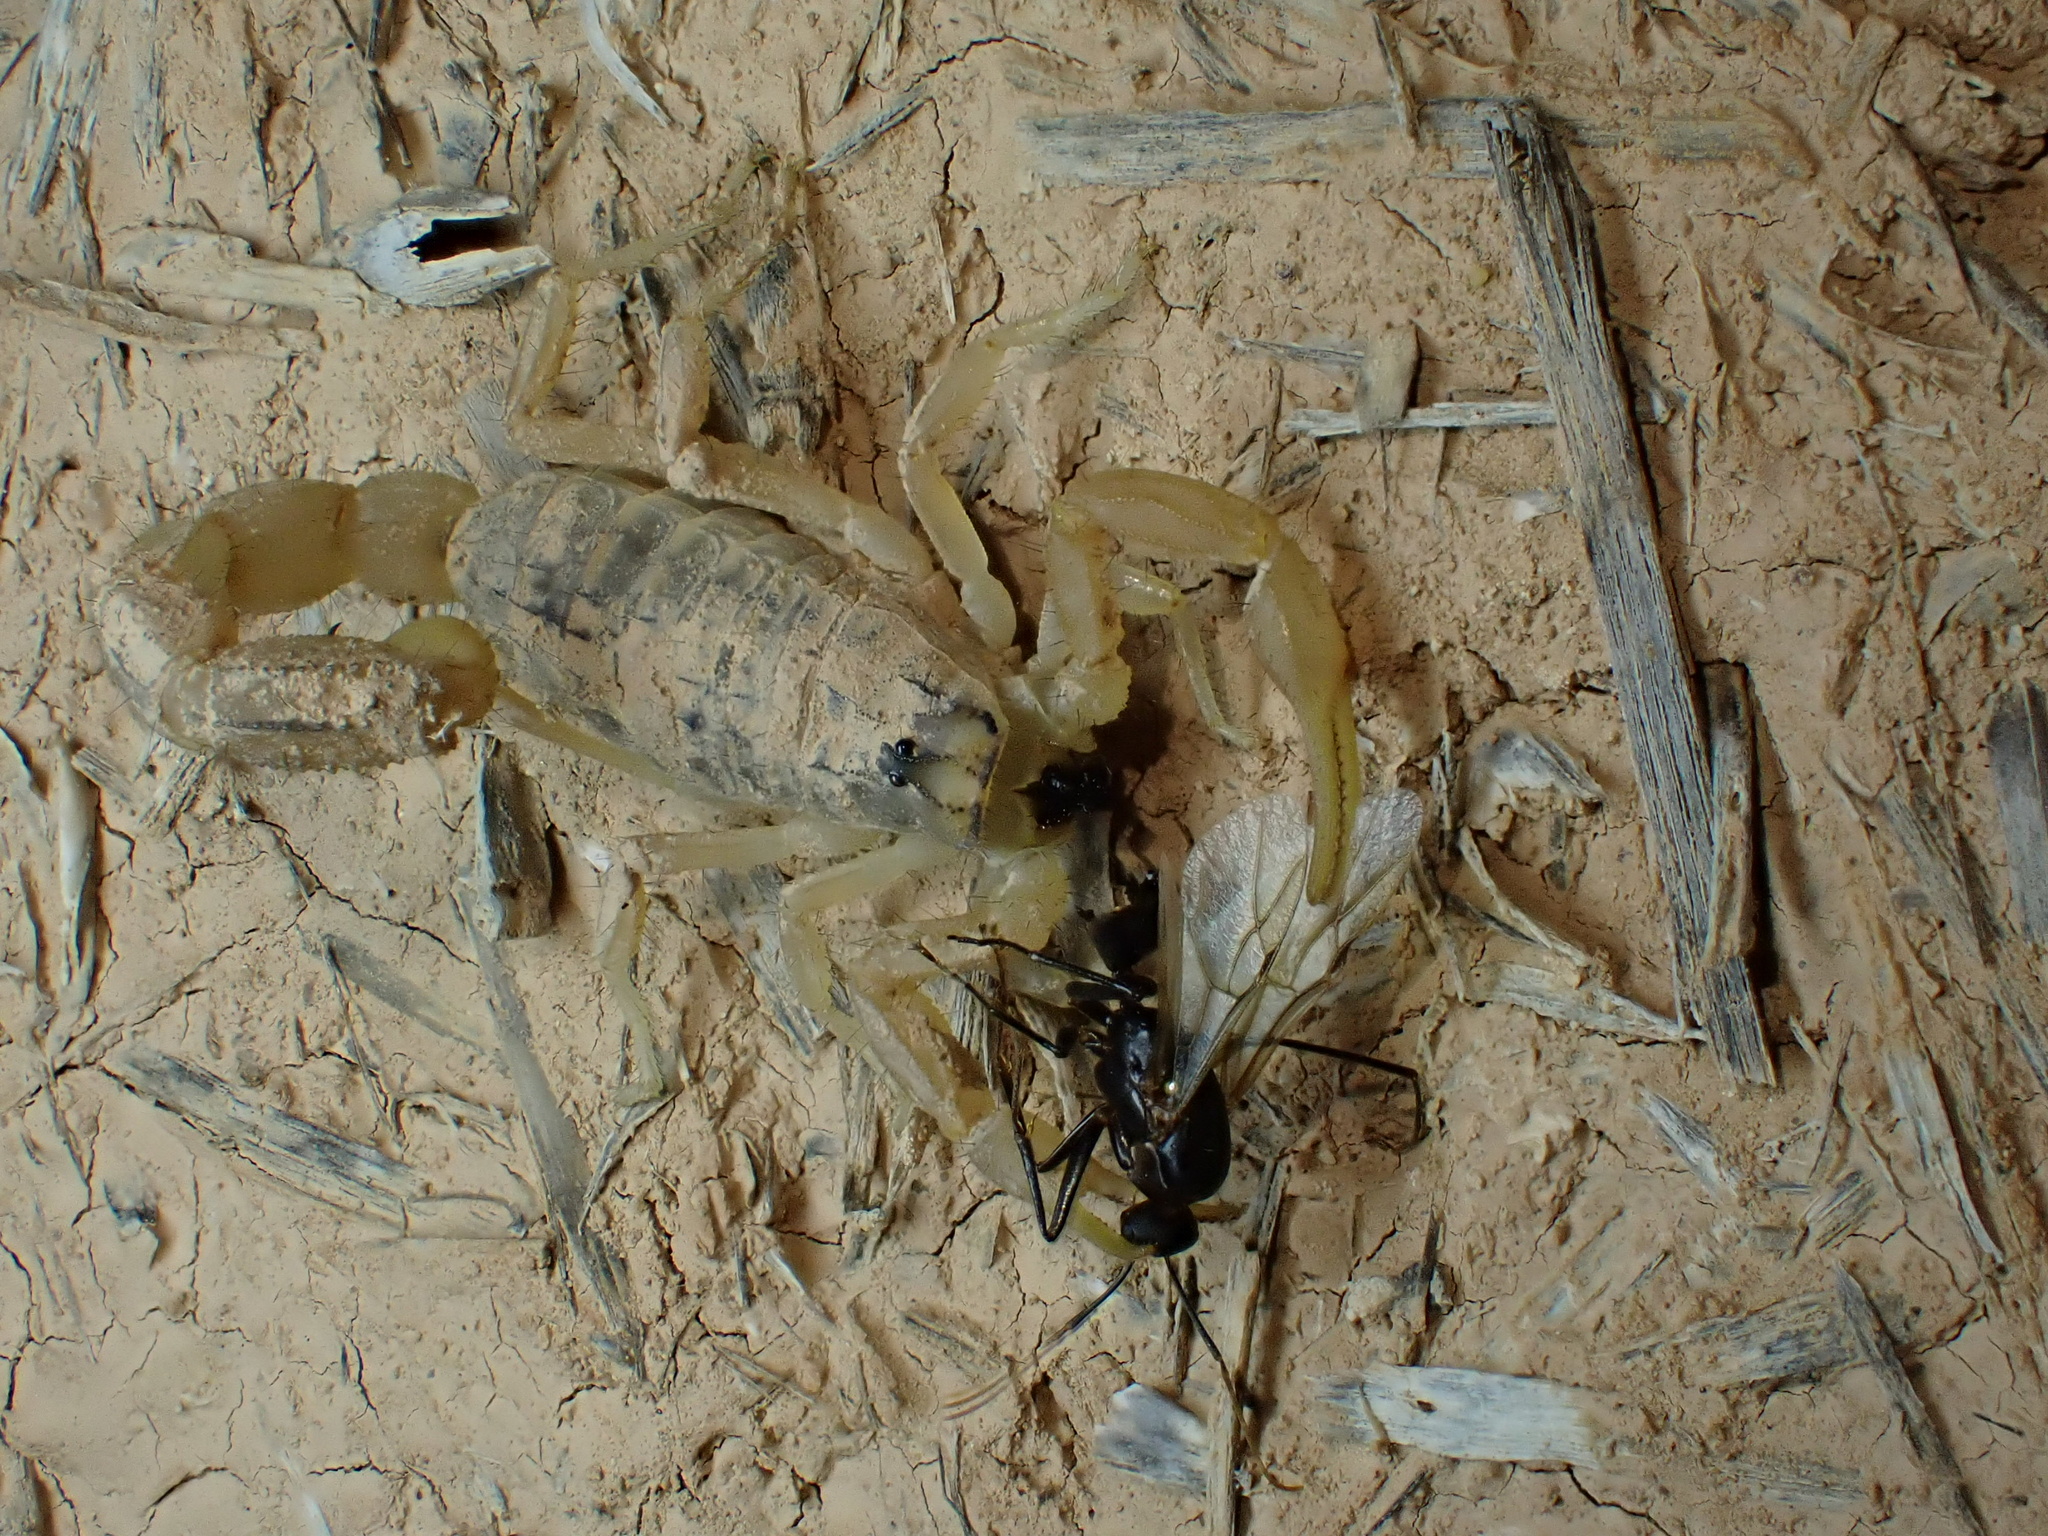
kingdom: Animalia
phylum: Arthropoda
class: Arachnida
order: Scorpiones
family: Buthidae
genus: Mesobuthus
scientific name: Mesobuthus crucittii
